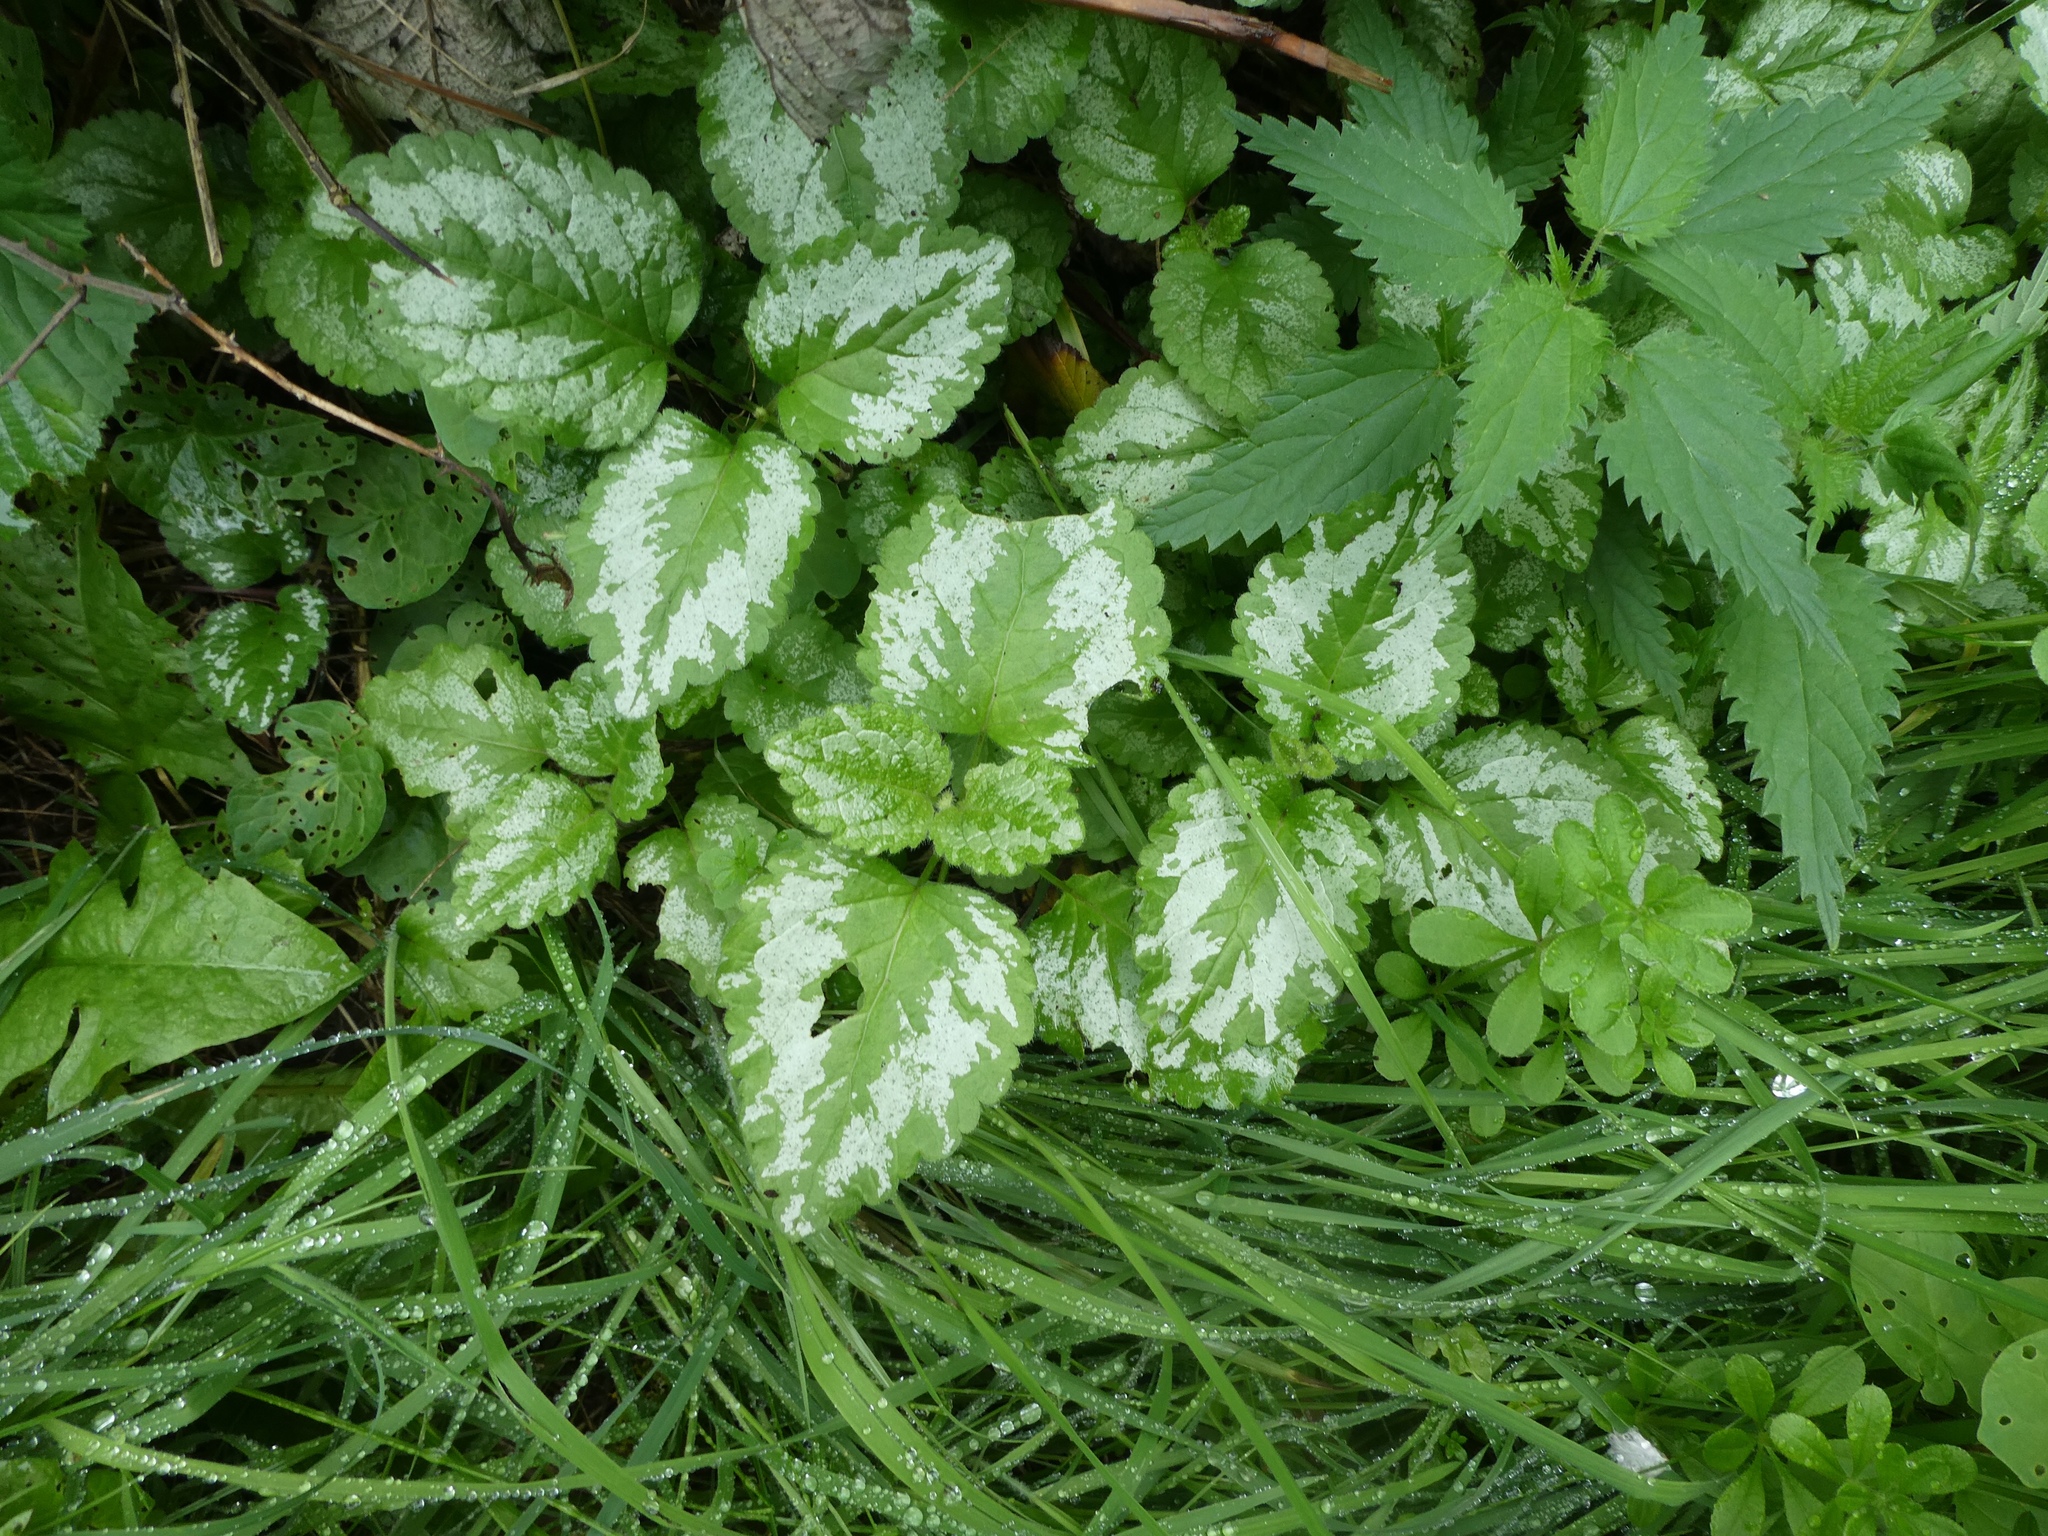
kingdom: Plantae
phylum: Tracheophyta
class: Magnoliopsida
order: Lamiales
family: Lamiaceae
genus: Lamium
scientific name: Lamium galeobdolon
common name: Yellow archangel
